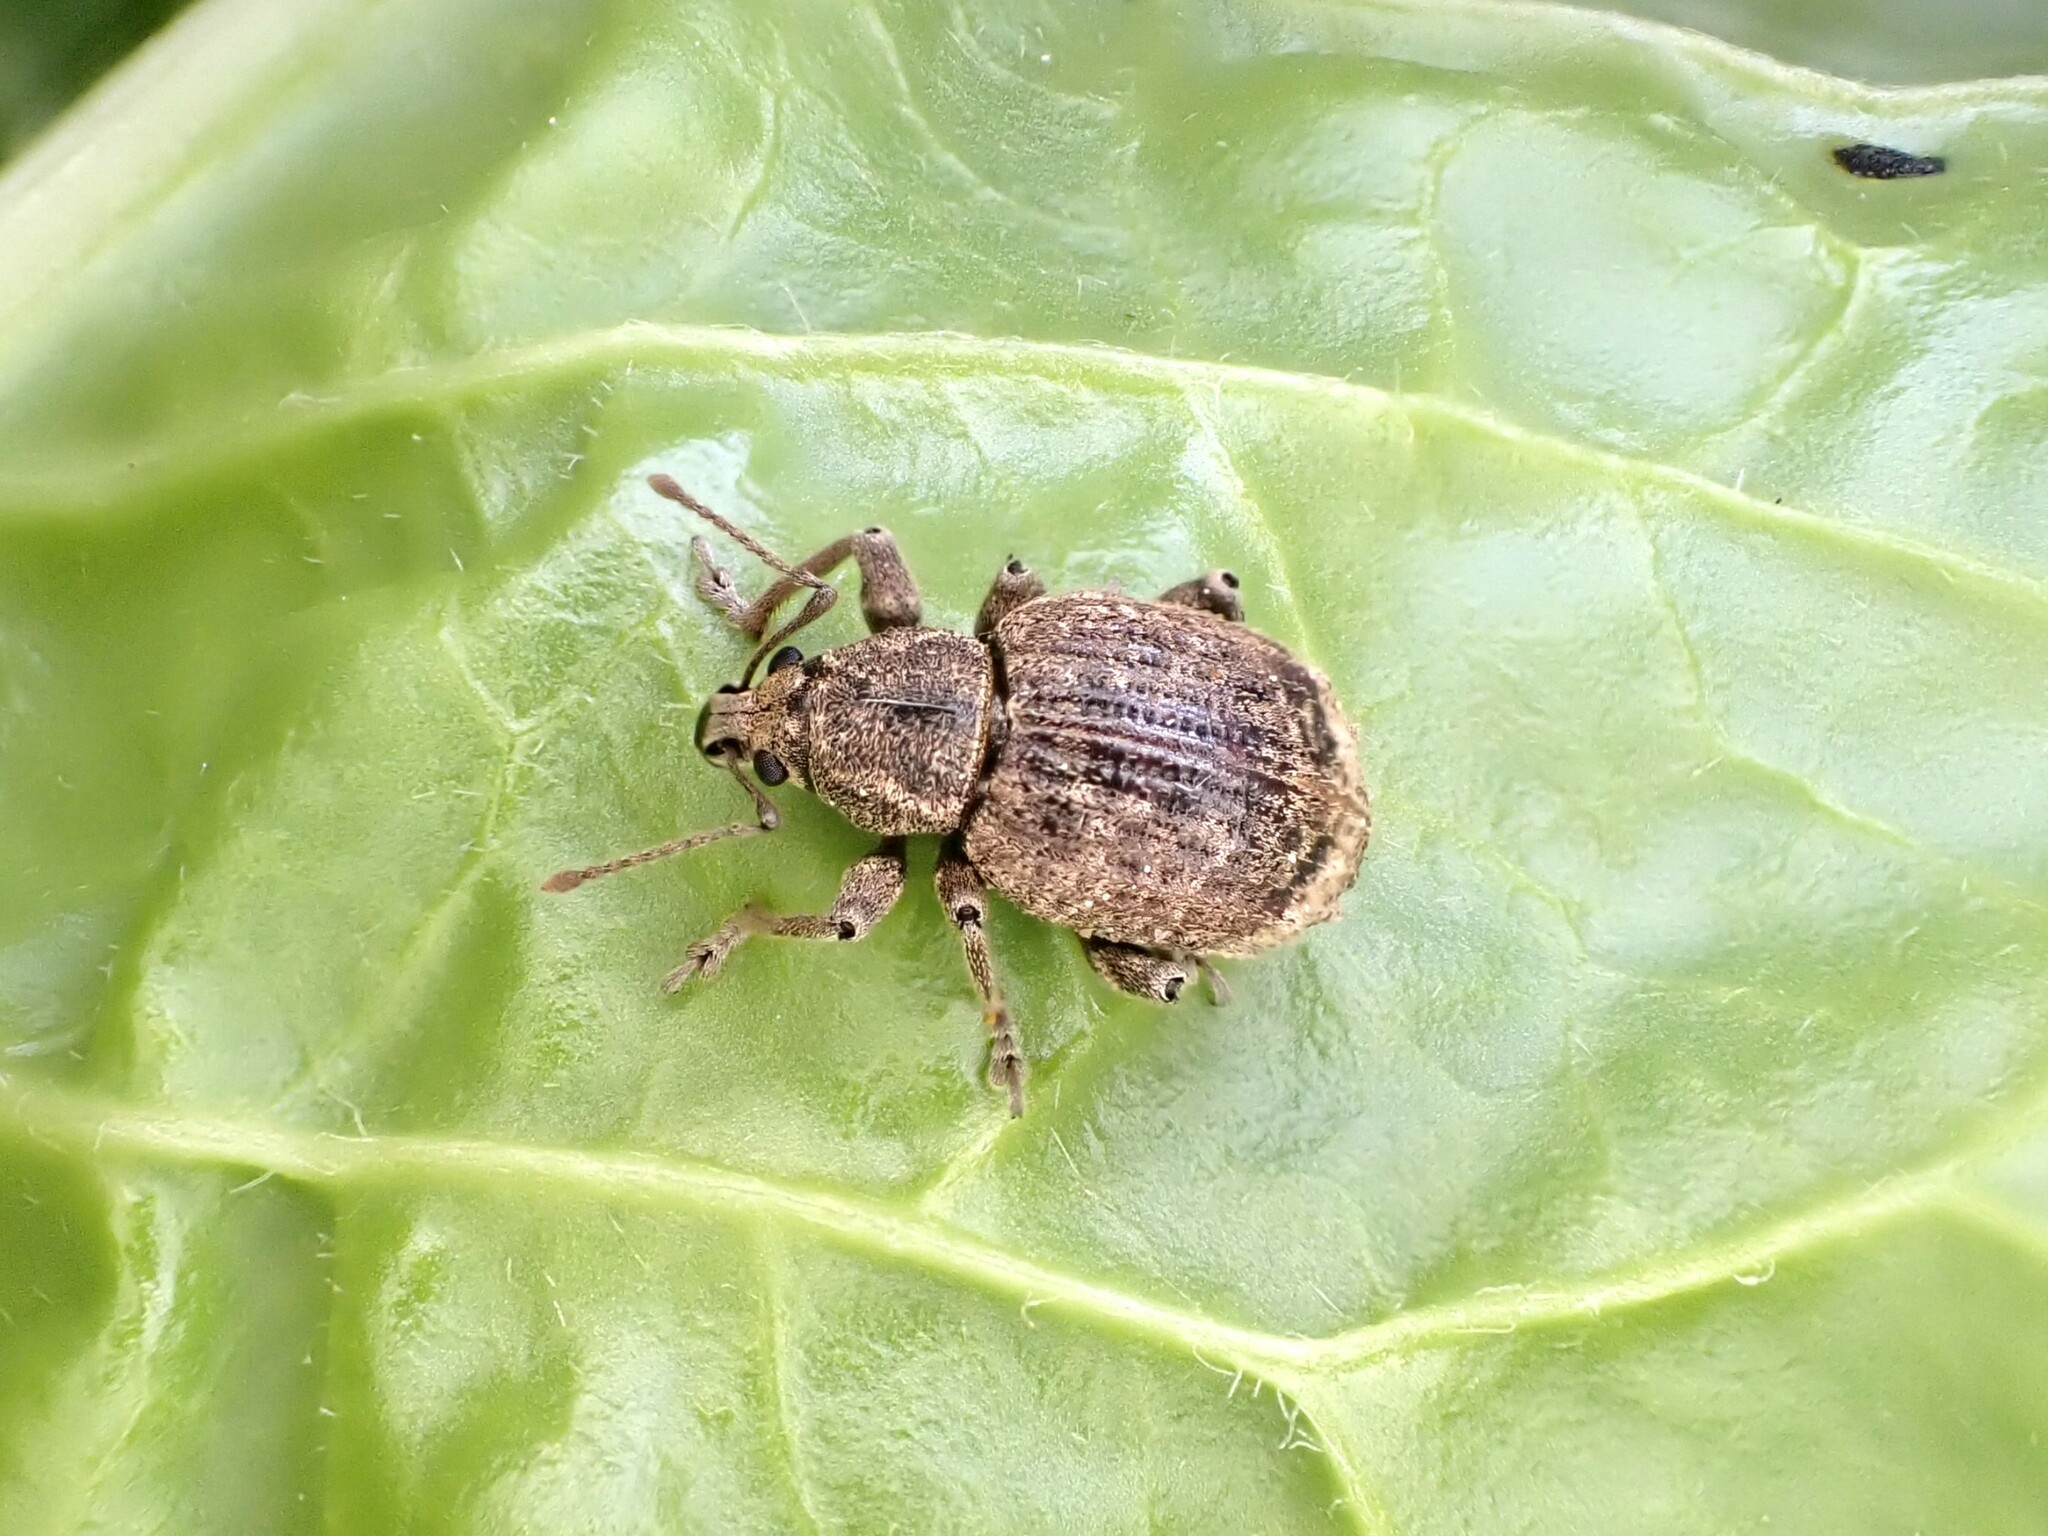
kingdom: Animalia
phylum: Arthropoda
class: Insecta
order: Coleoptera
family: Curculionidae
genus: Phlyctinus
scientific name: Phlyctinus callosus
